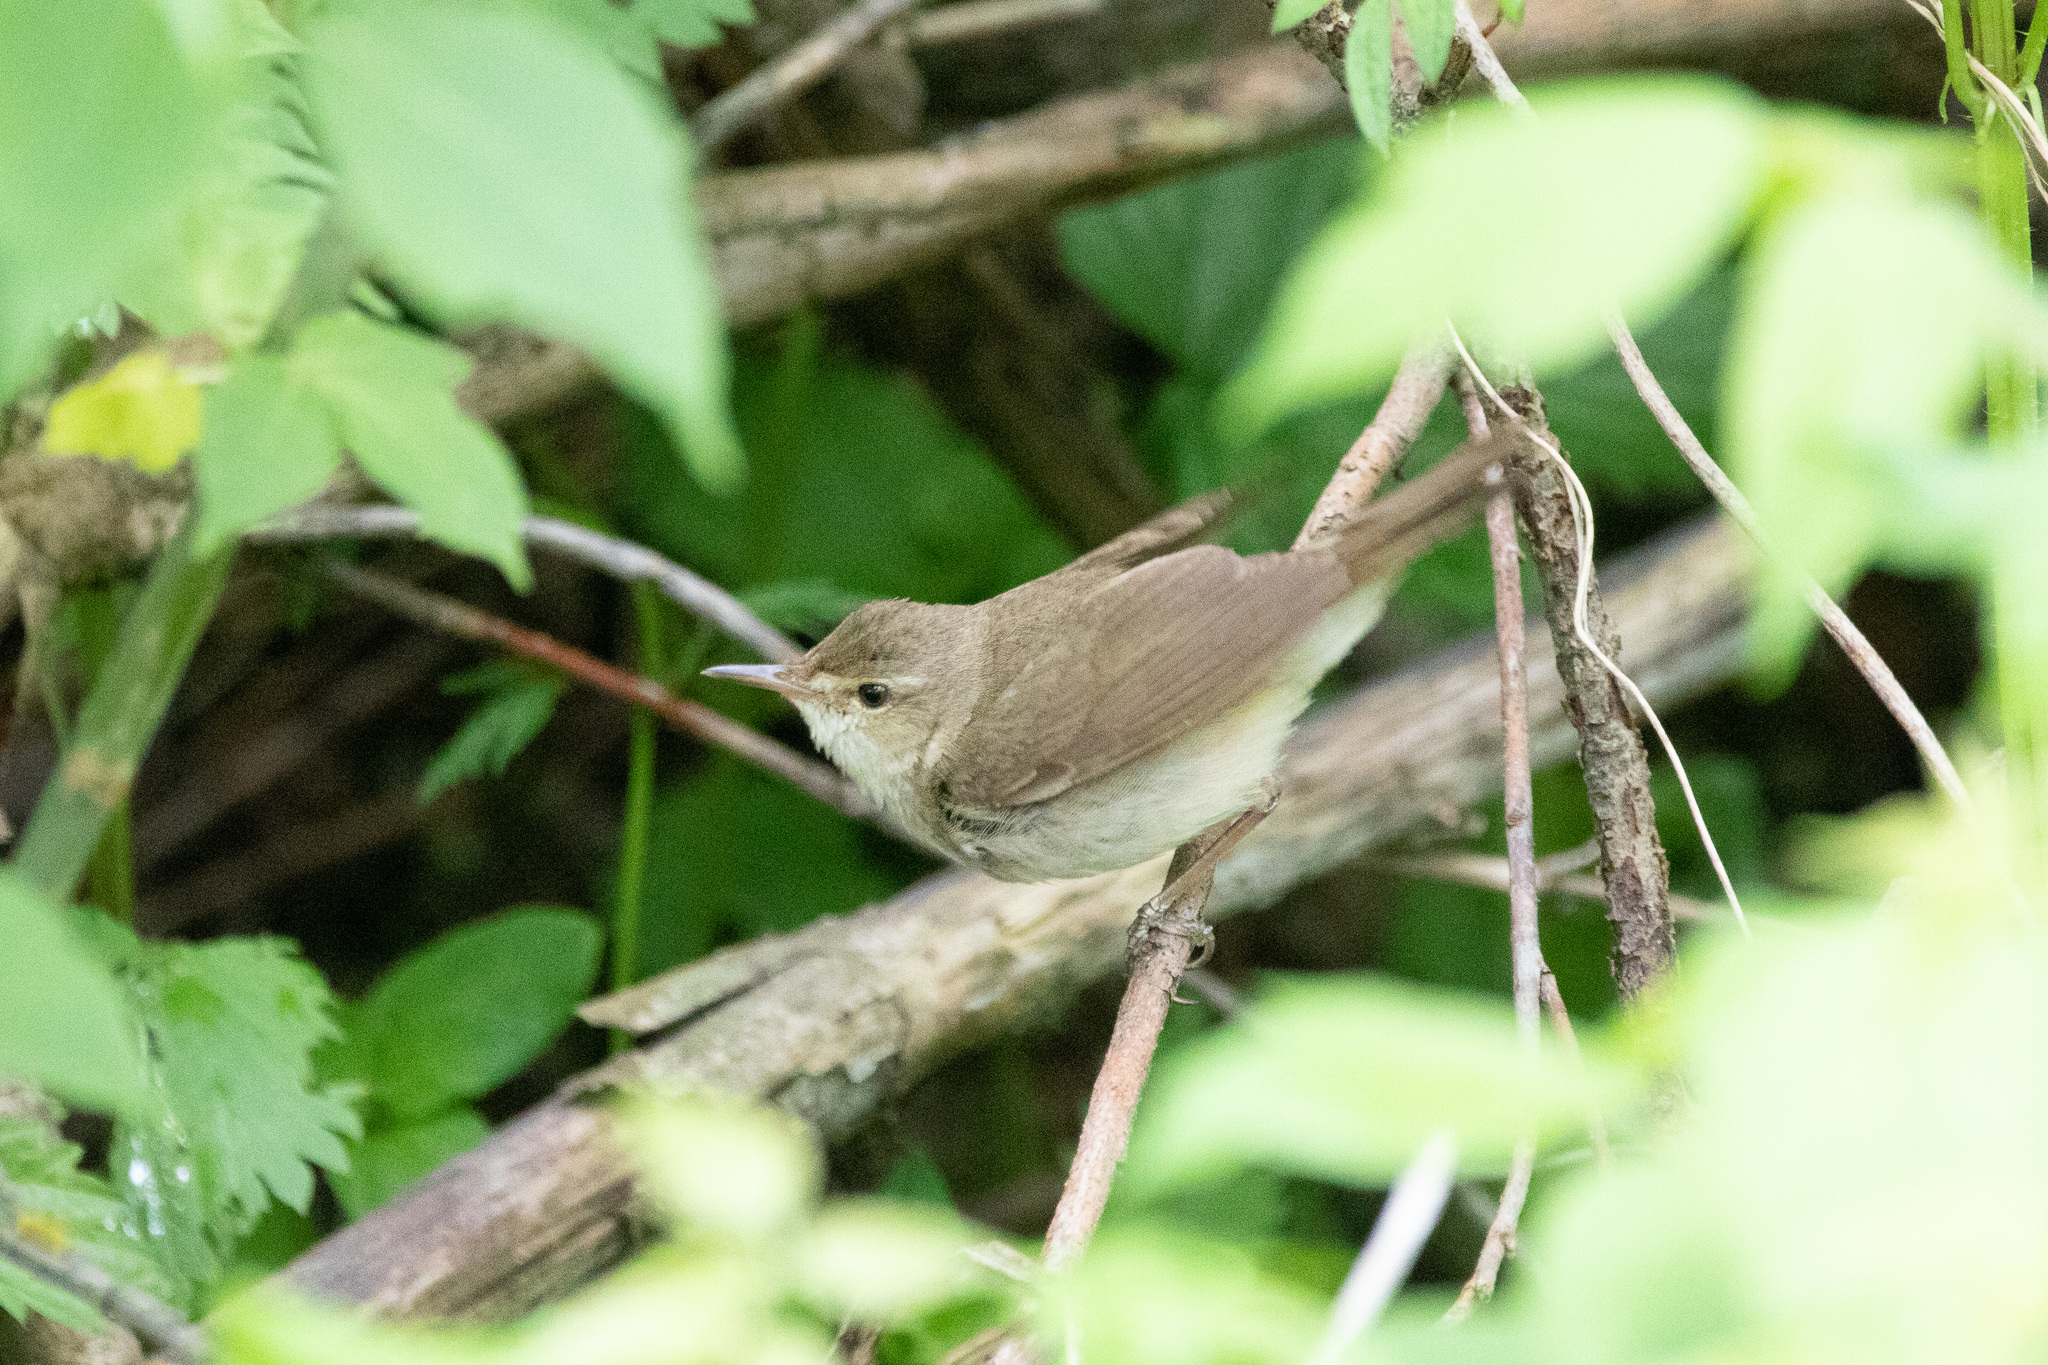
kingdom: Animalia
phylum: Chordata
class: Aves
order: Passeriformes
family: Acrocephalidae
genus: Acrocephalus
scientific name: Acrocephalus dumetorum
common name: Blyth's reed warbler
